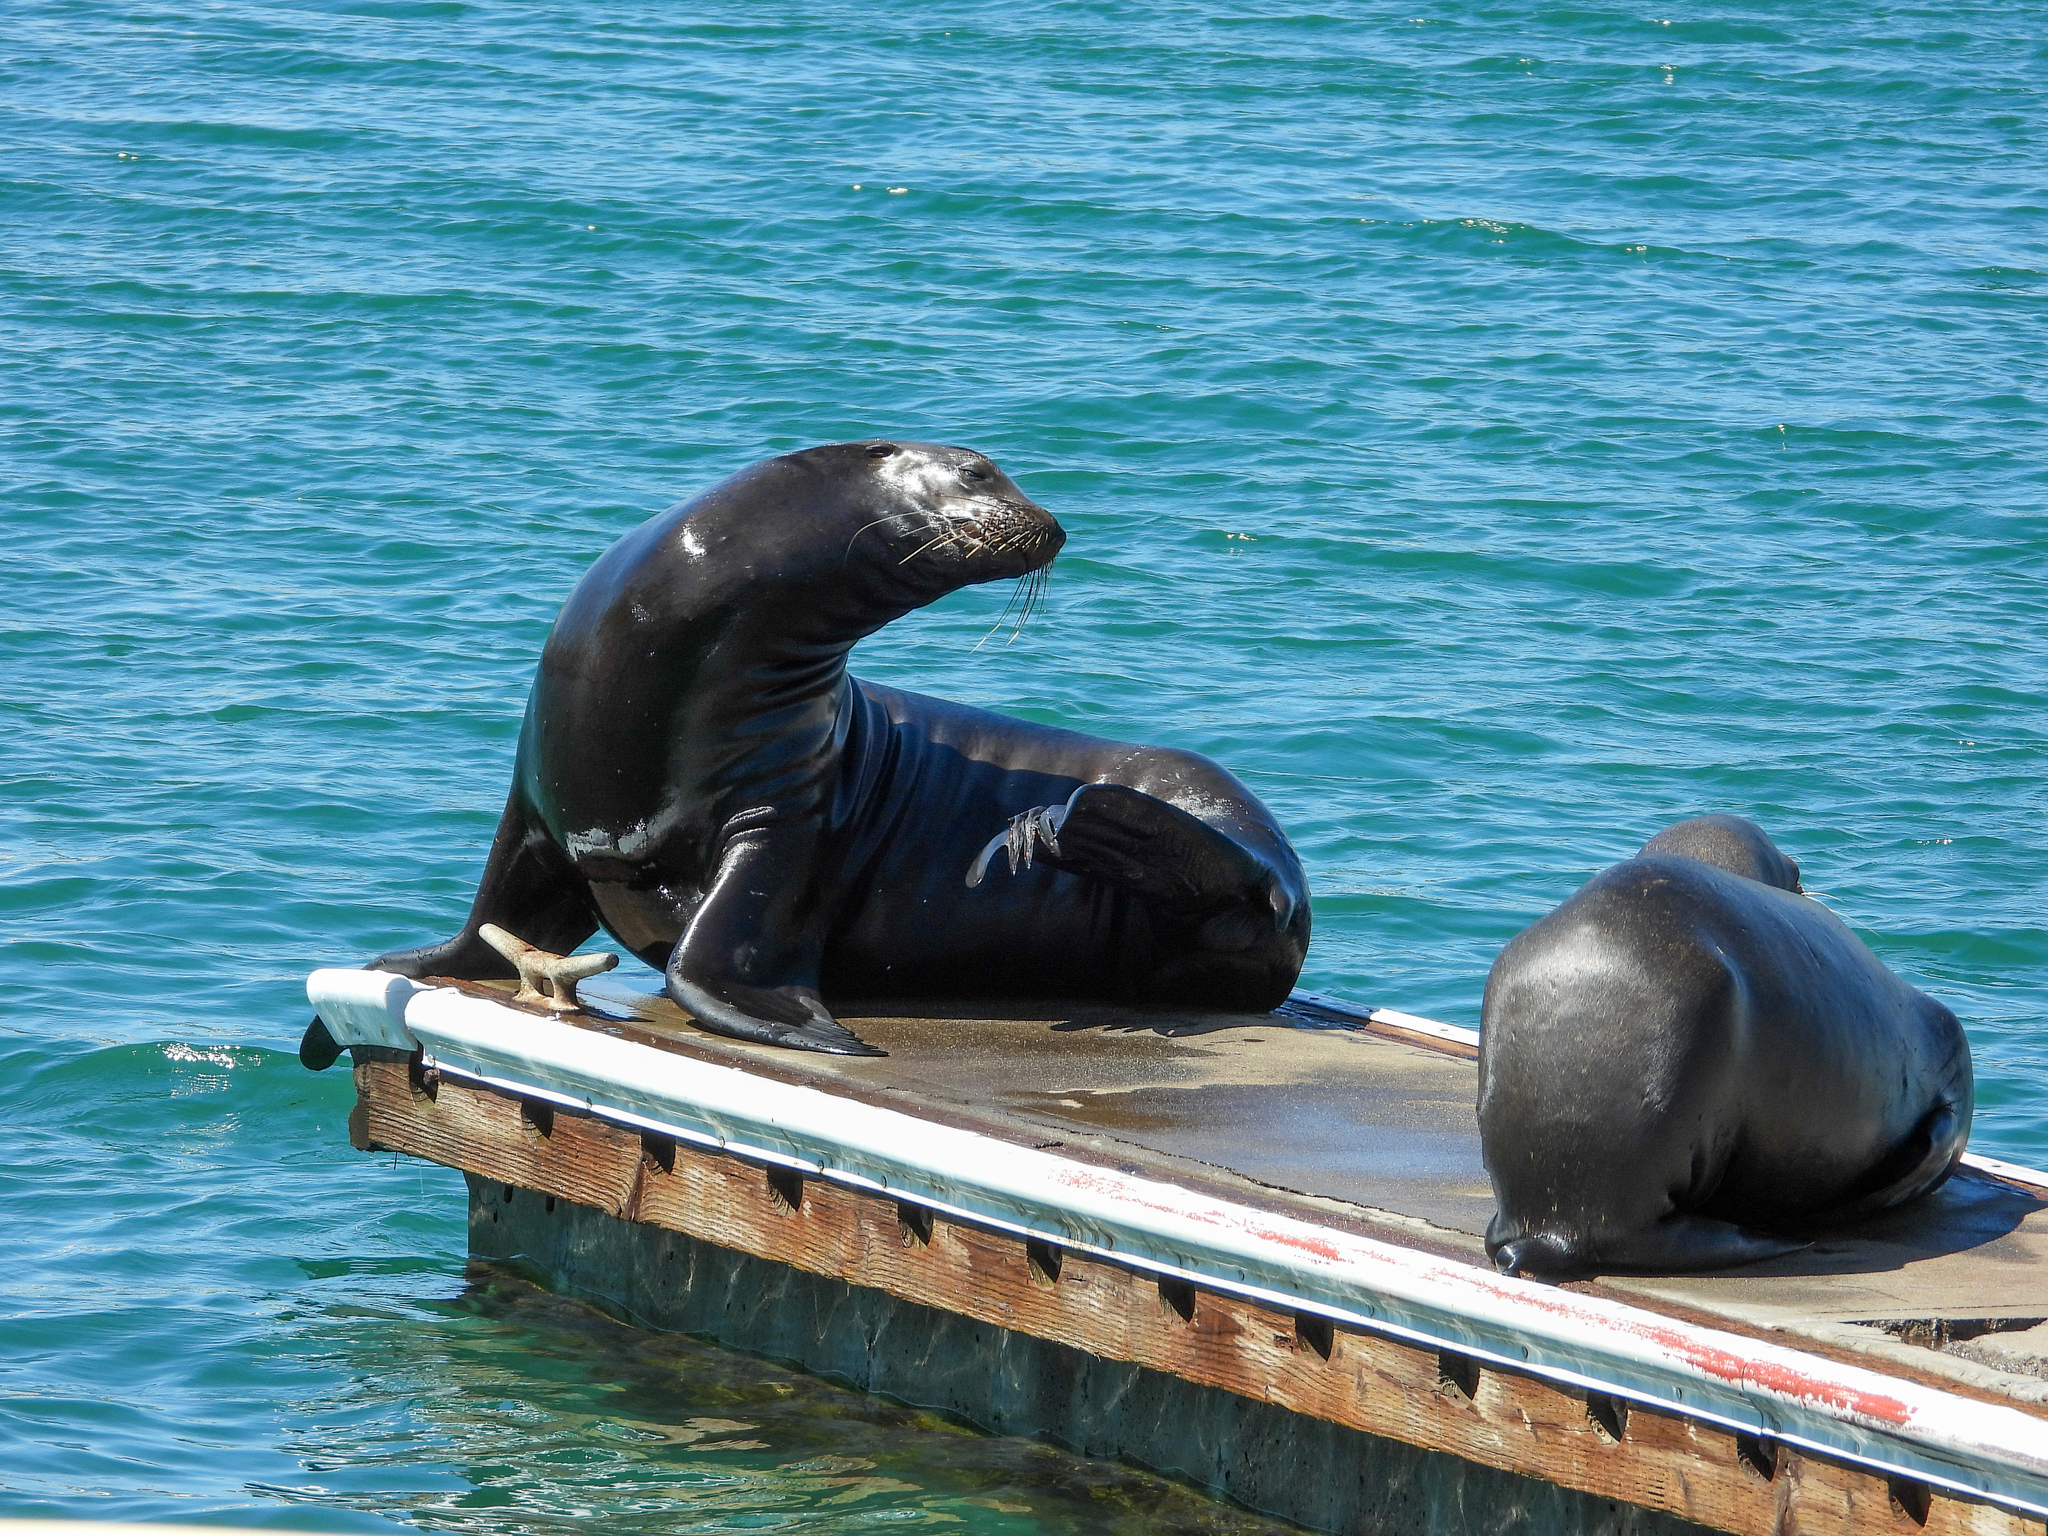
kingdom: Animalia
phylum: Chordata
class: Mammalia
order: Carnivora
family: Otariidae
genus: Zalophus
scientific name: Zalophus californianus
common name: California sea lion
